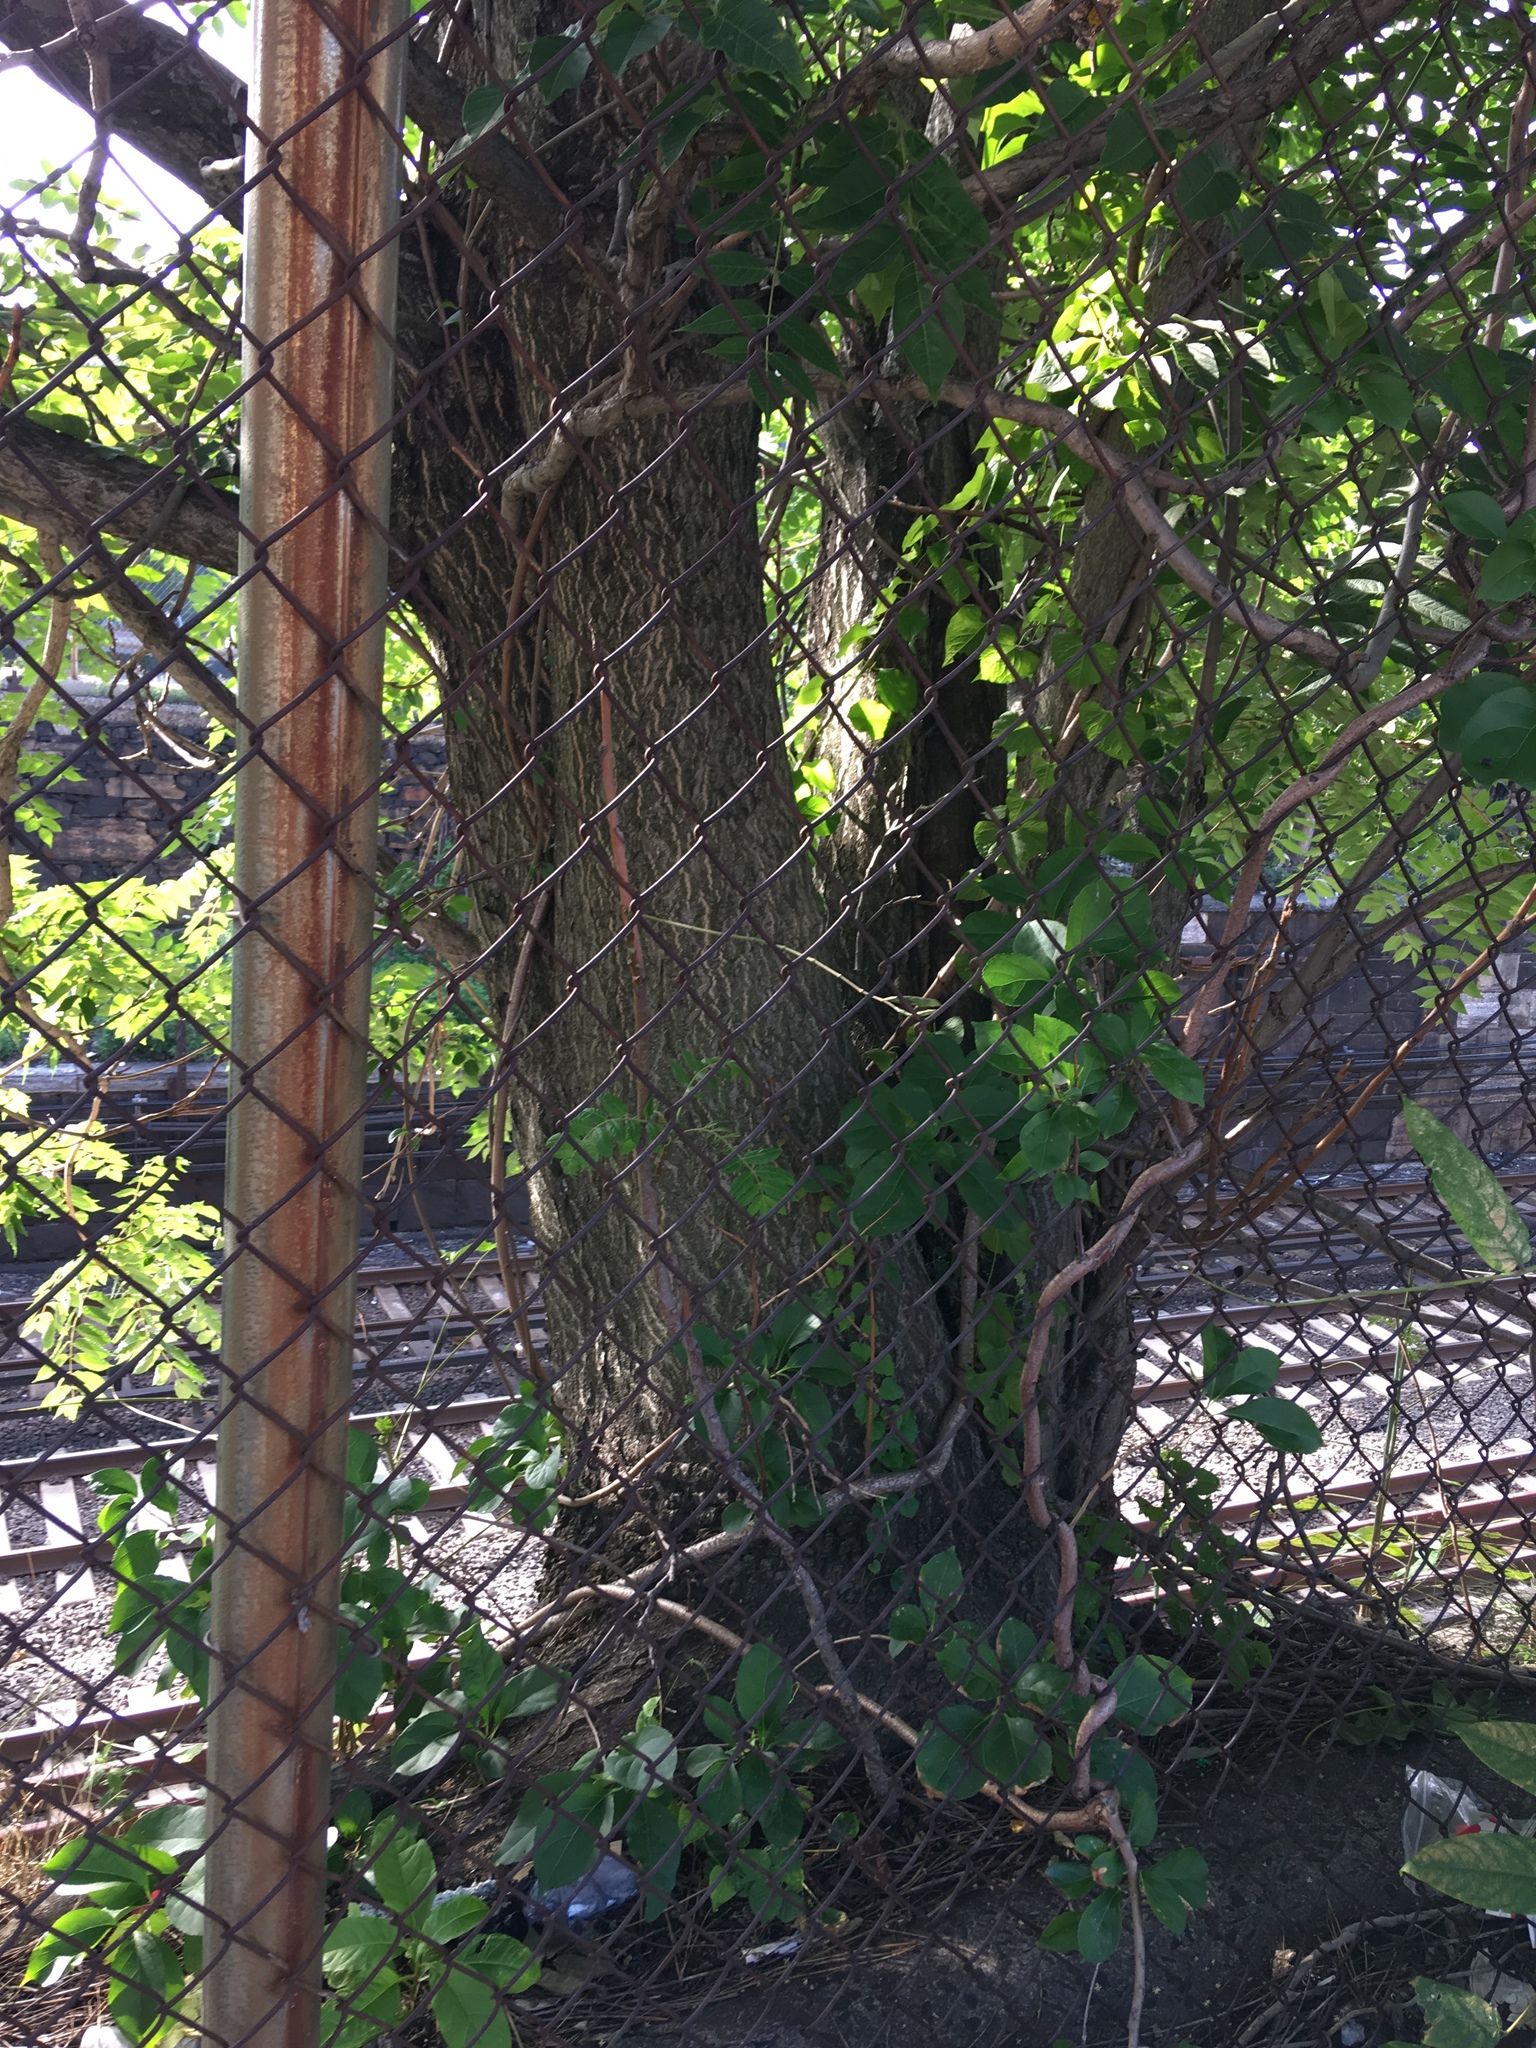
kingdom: Plantae
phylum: Tracheophyta
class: Magnoliopsida
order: Sapindales
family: Simaroubaceae
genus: Ailanthus
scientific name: Ailanthus altissima
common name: Tree-of-heaven
